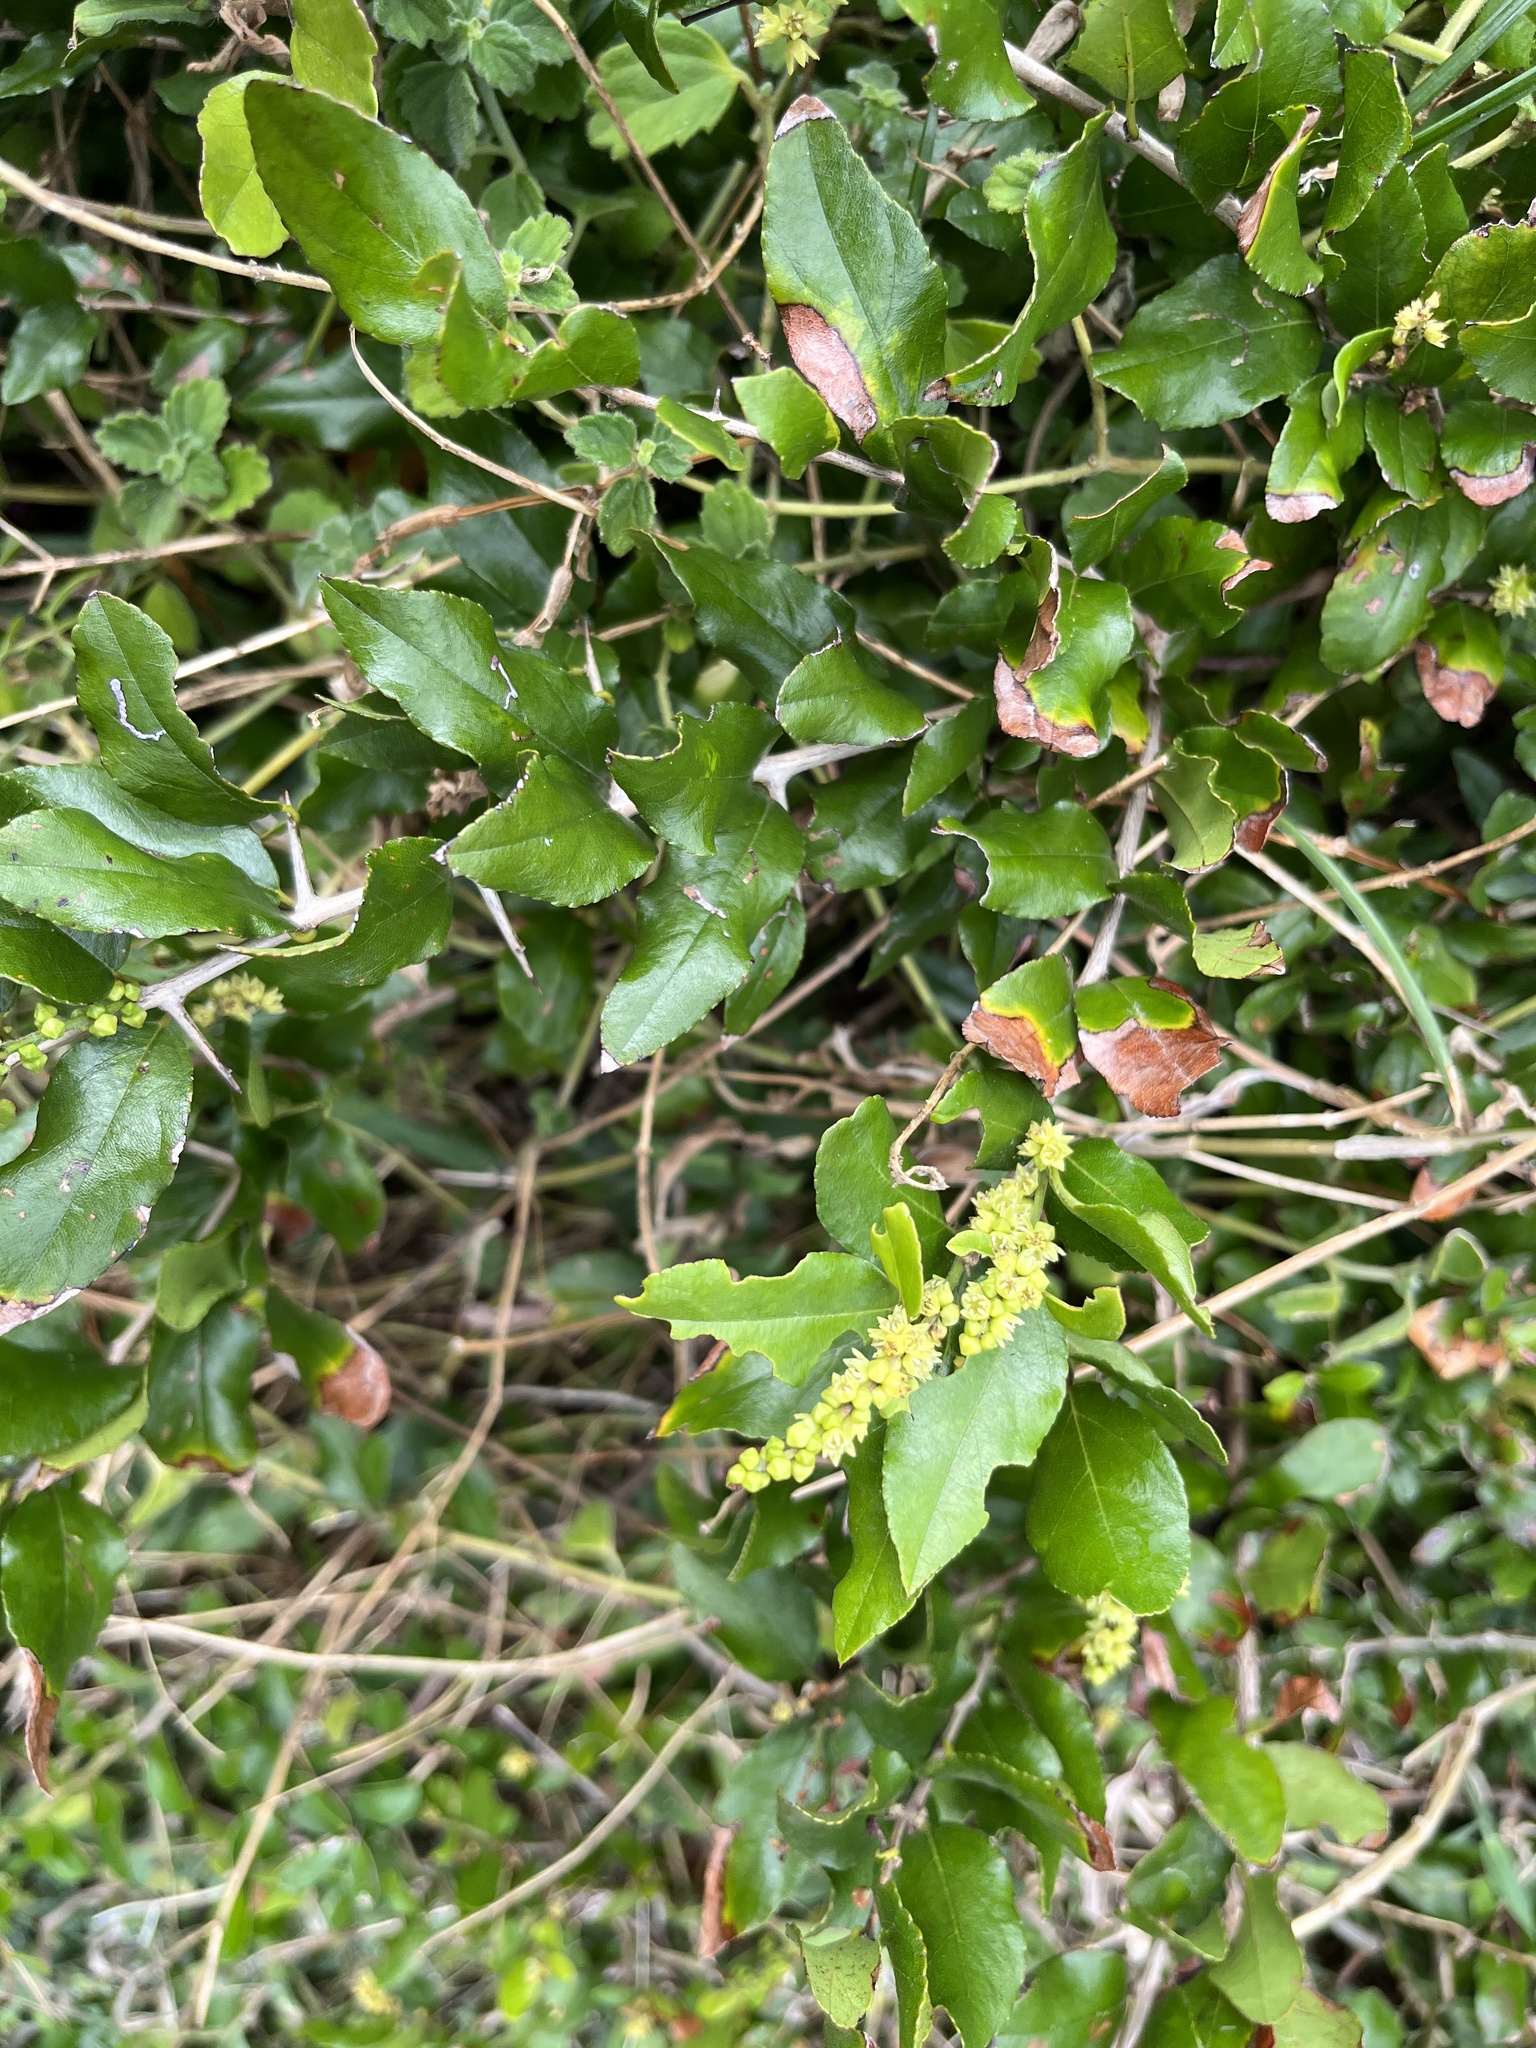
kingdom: Plantae
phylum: Tracheophyta
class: Magnoliopsida
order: Rosales
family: Rhamnaceae
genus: Sageretia
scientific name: Sageretia thea
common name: Pauper's-tea
